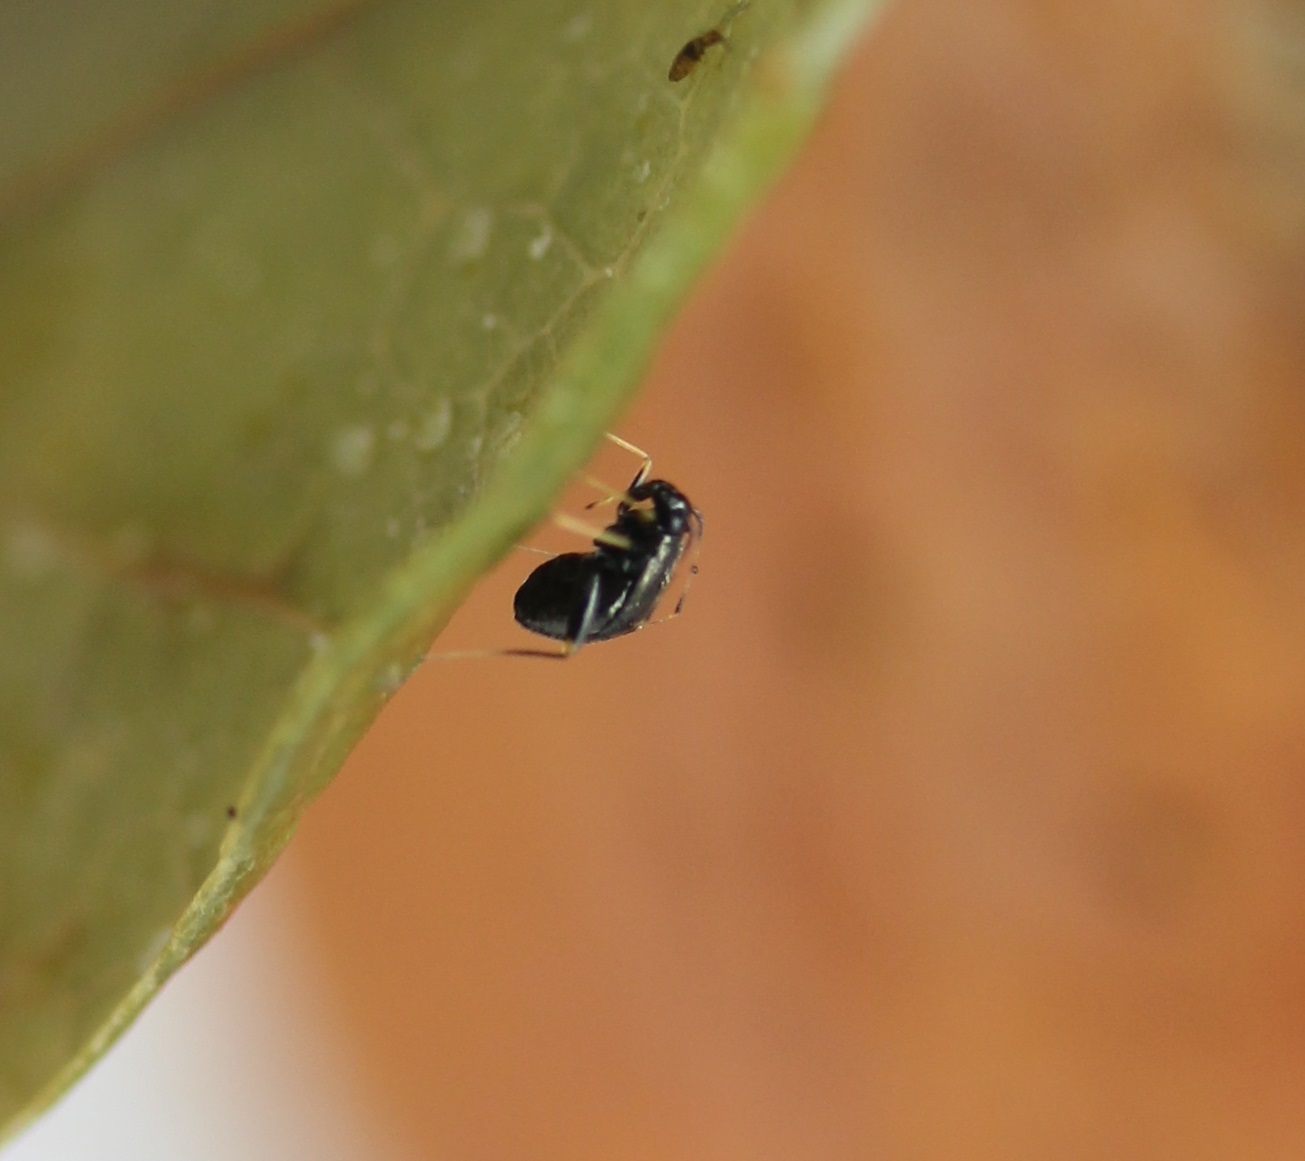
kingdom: Animalia
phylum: Arthropoda
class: Insecta
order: Hemiptera
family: Miridae
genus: Microtechnites
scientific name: Microtechnites bractatus
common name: Garden fleahopper
